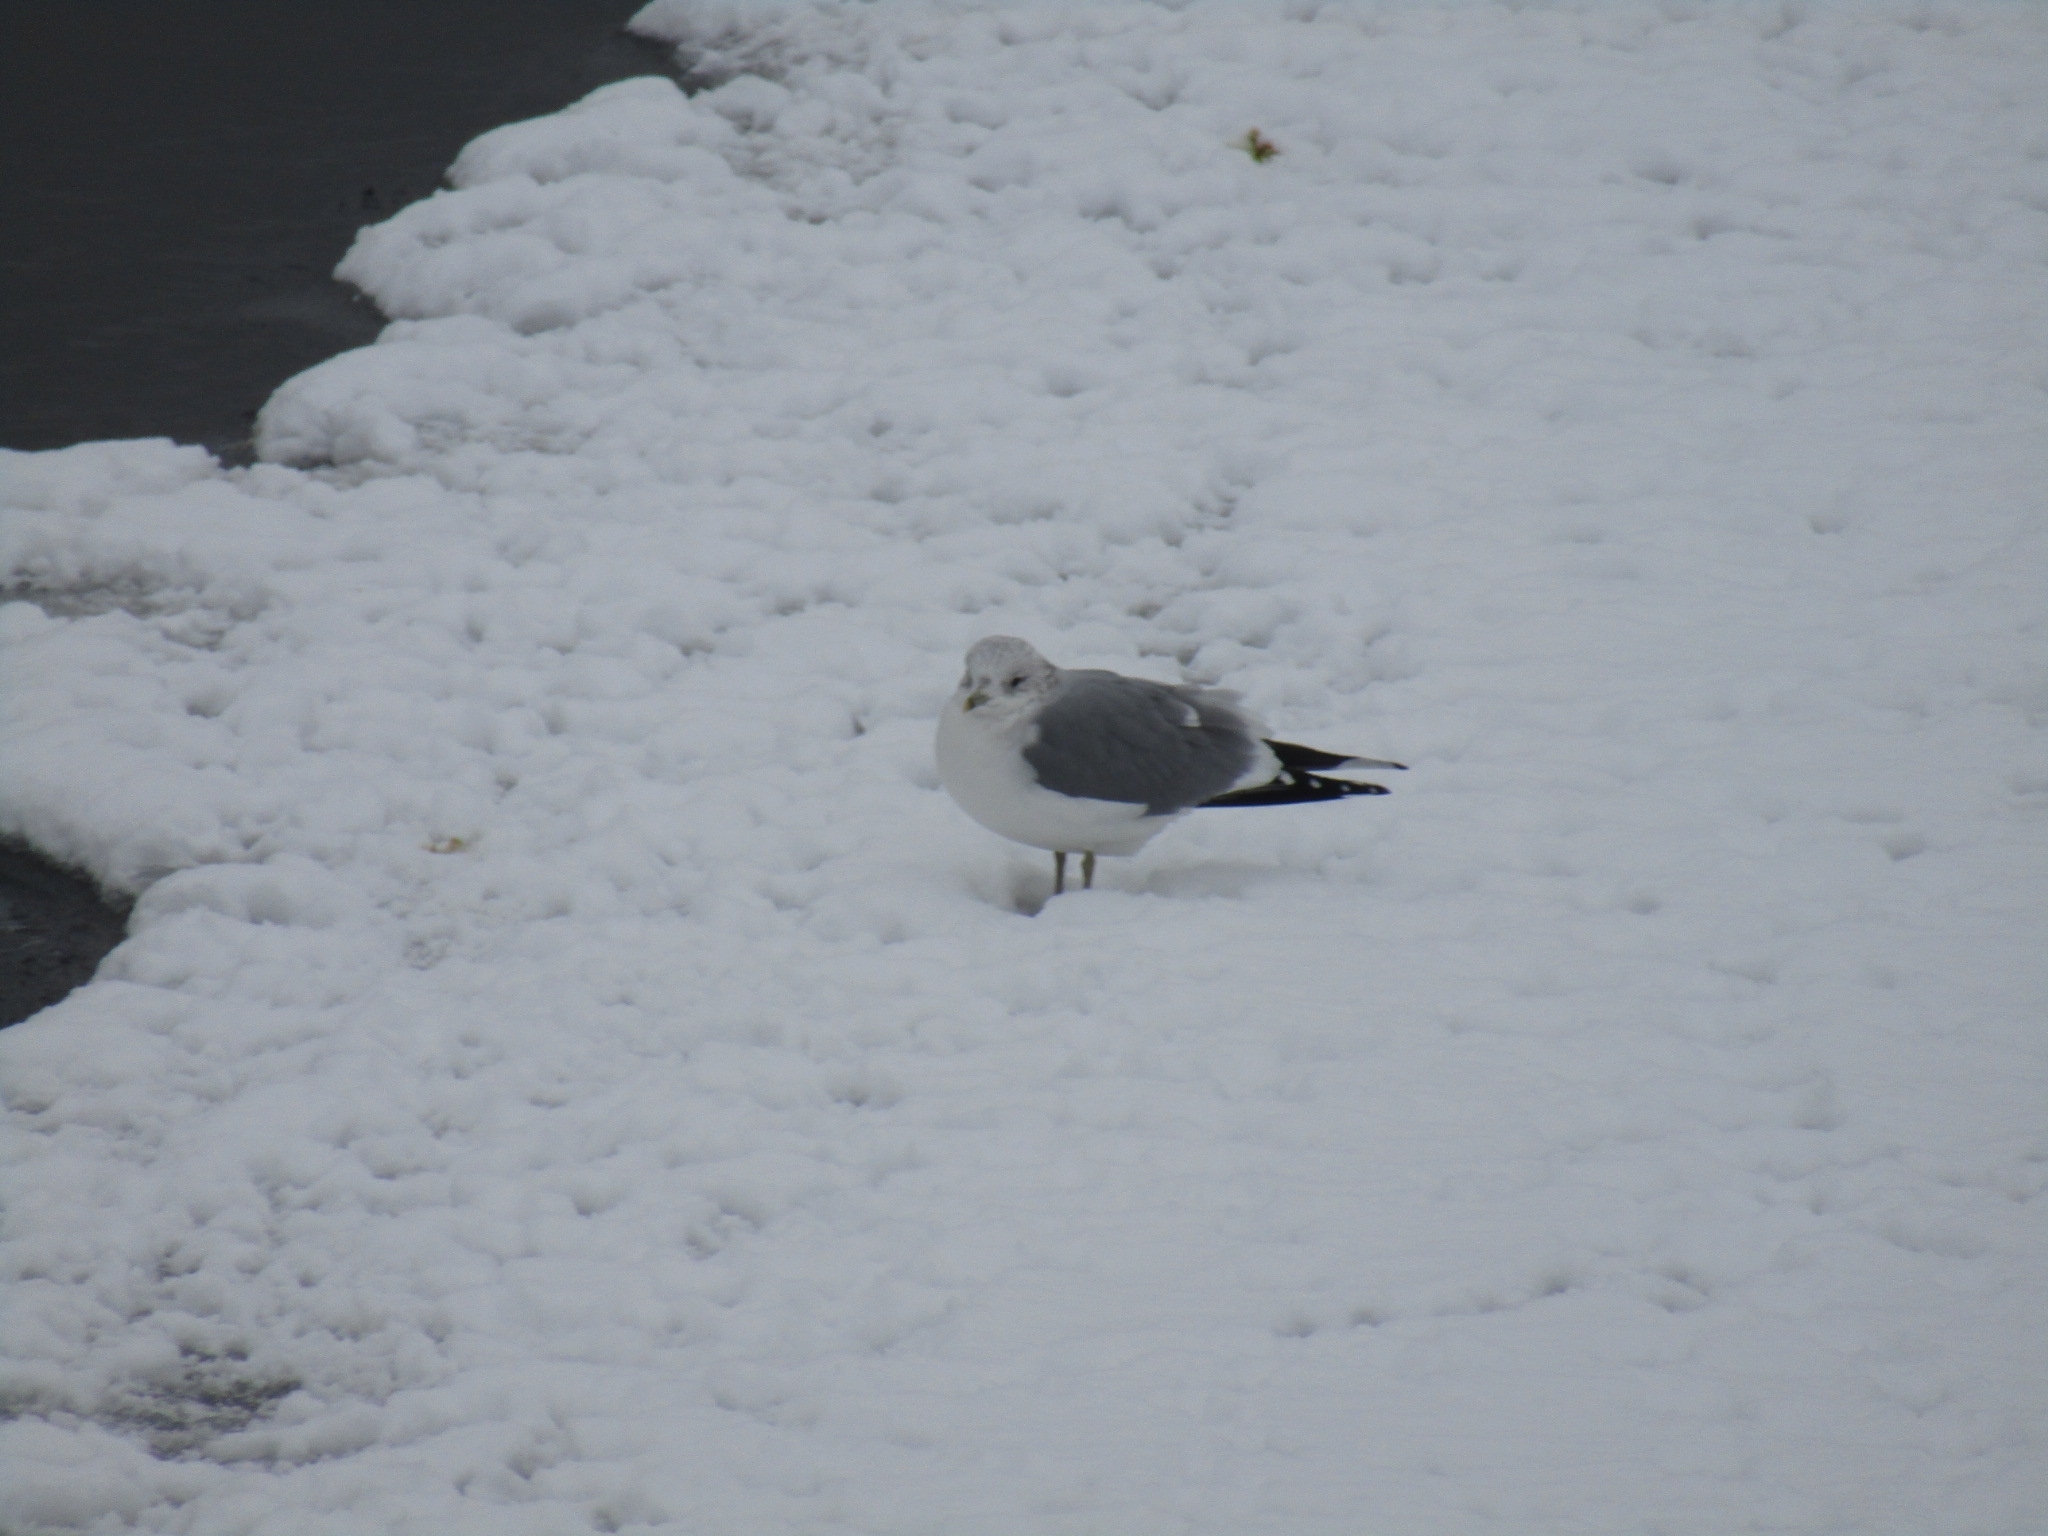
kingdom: Animalia
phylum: Chordata
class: Aves
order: Charadriiformes
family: Laridae
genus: Larus
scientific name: Larus canus
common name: Mew gull
